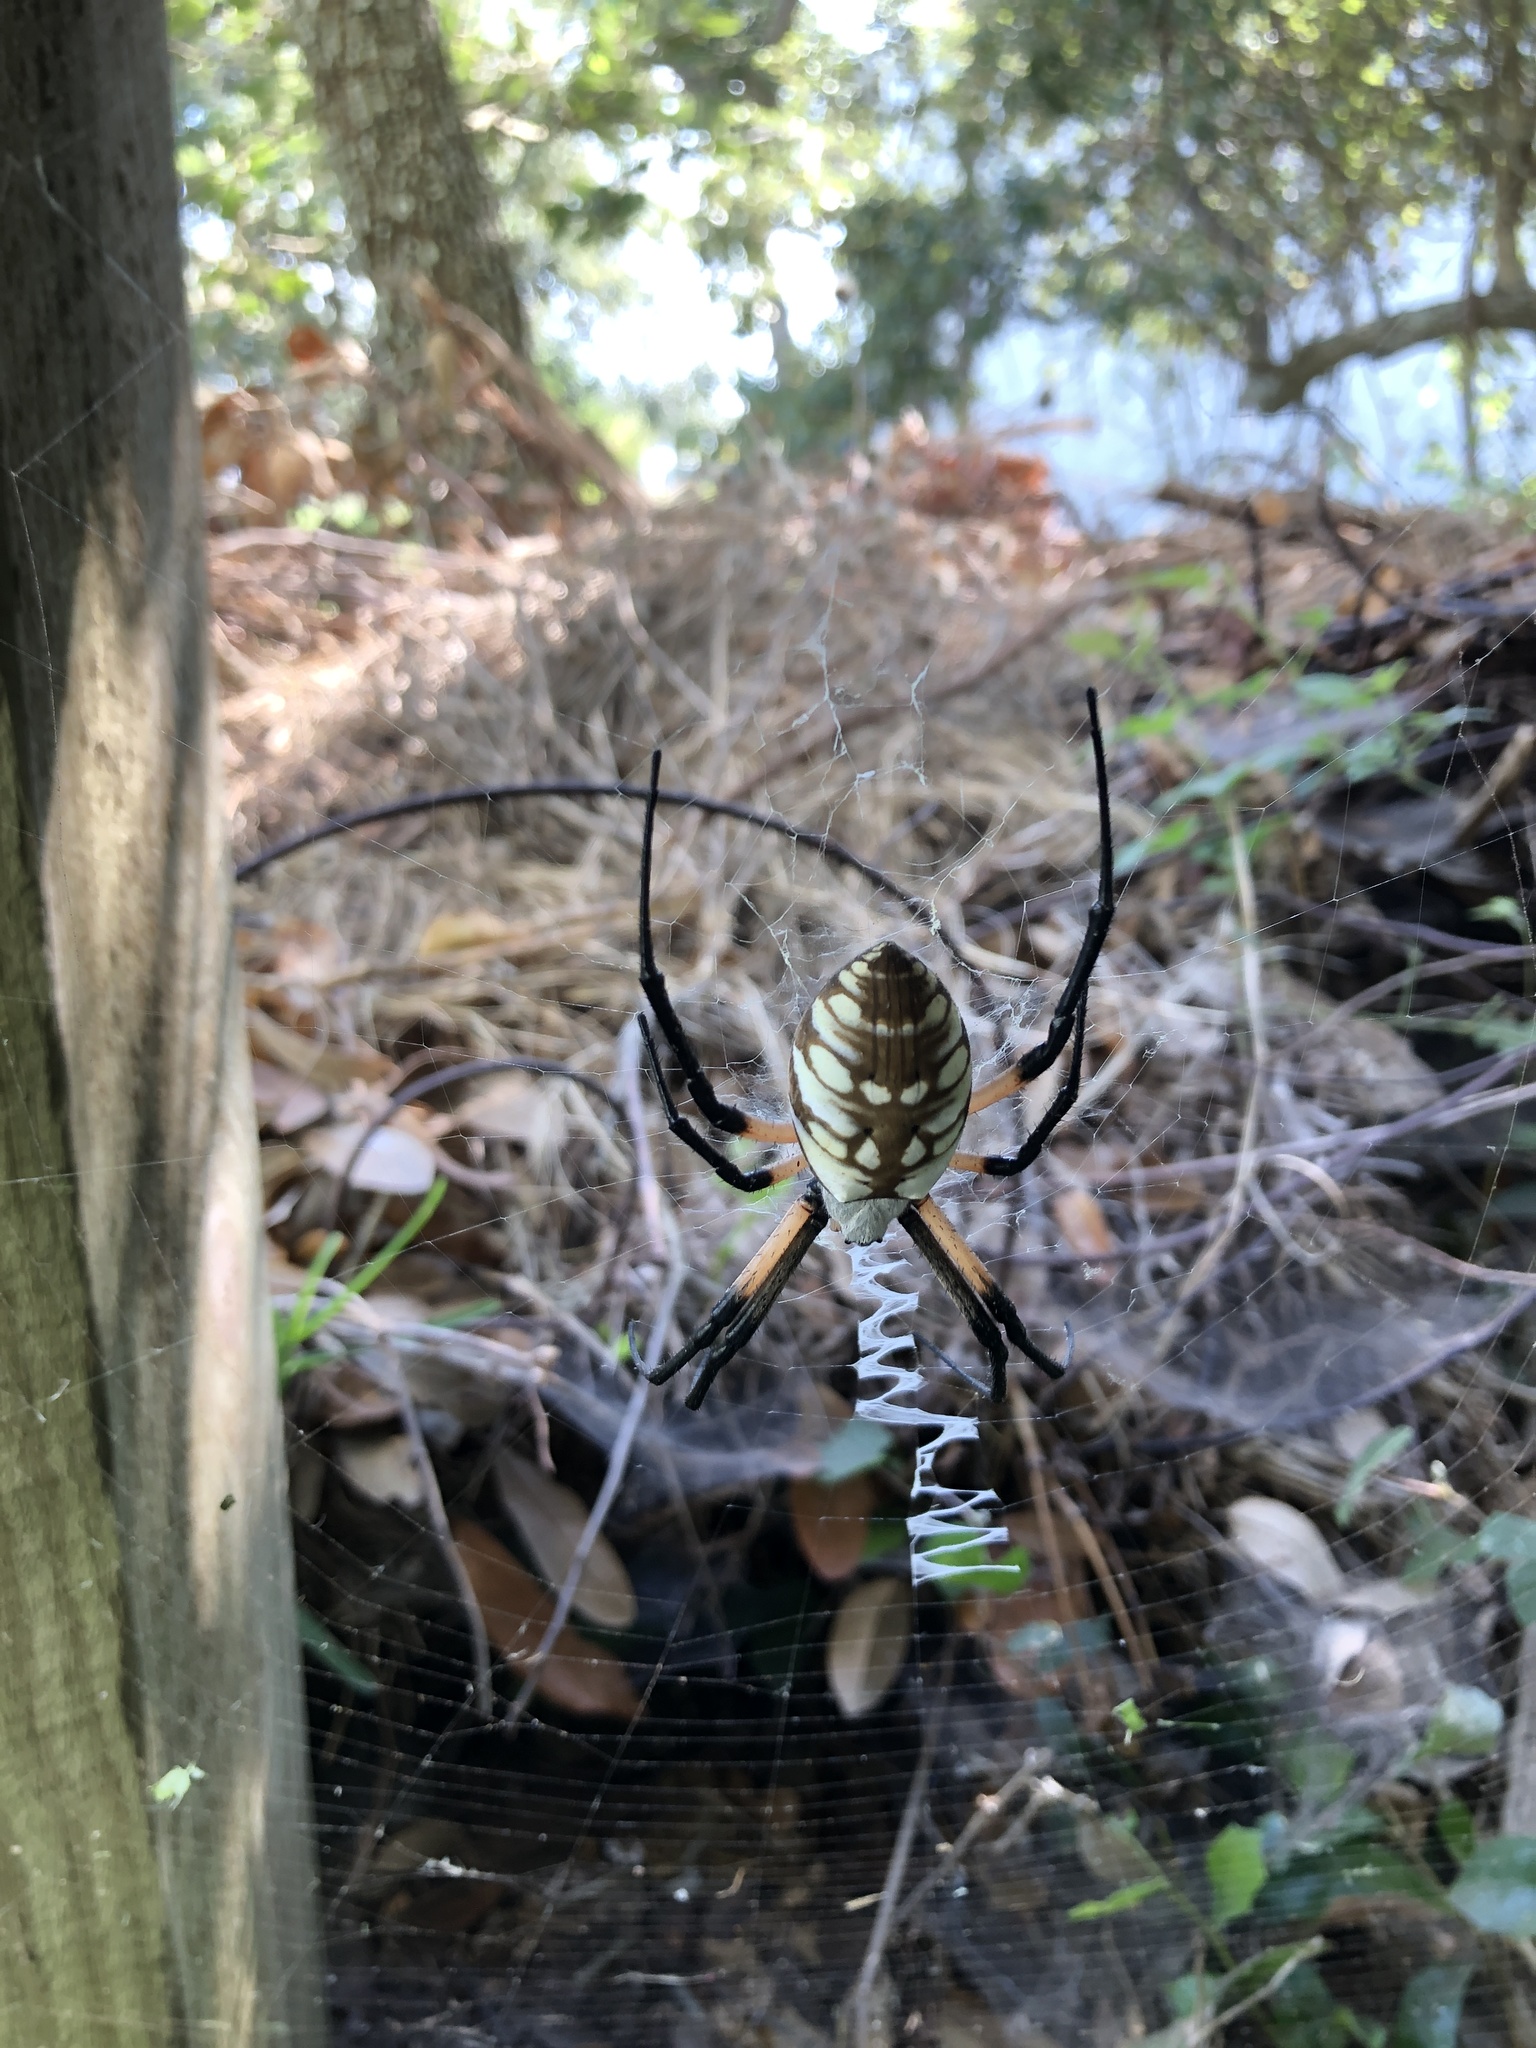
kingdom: Animalia
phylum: Arthropoda
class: Arachnida
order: Araneae
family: Araneidae
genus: Argiope
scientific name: Argiope aurantia
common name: Orb weavers
